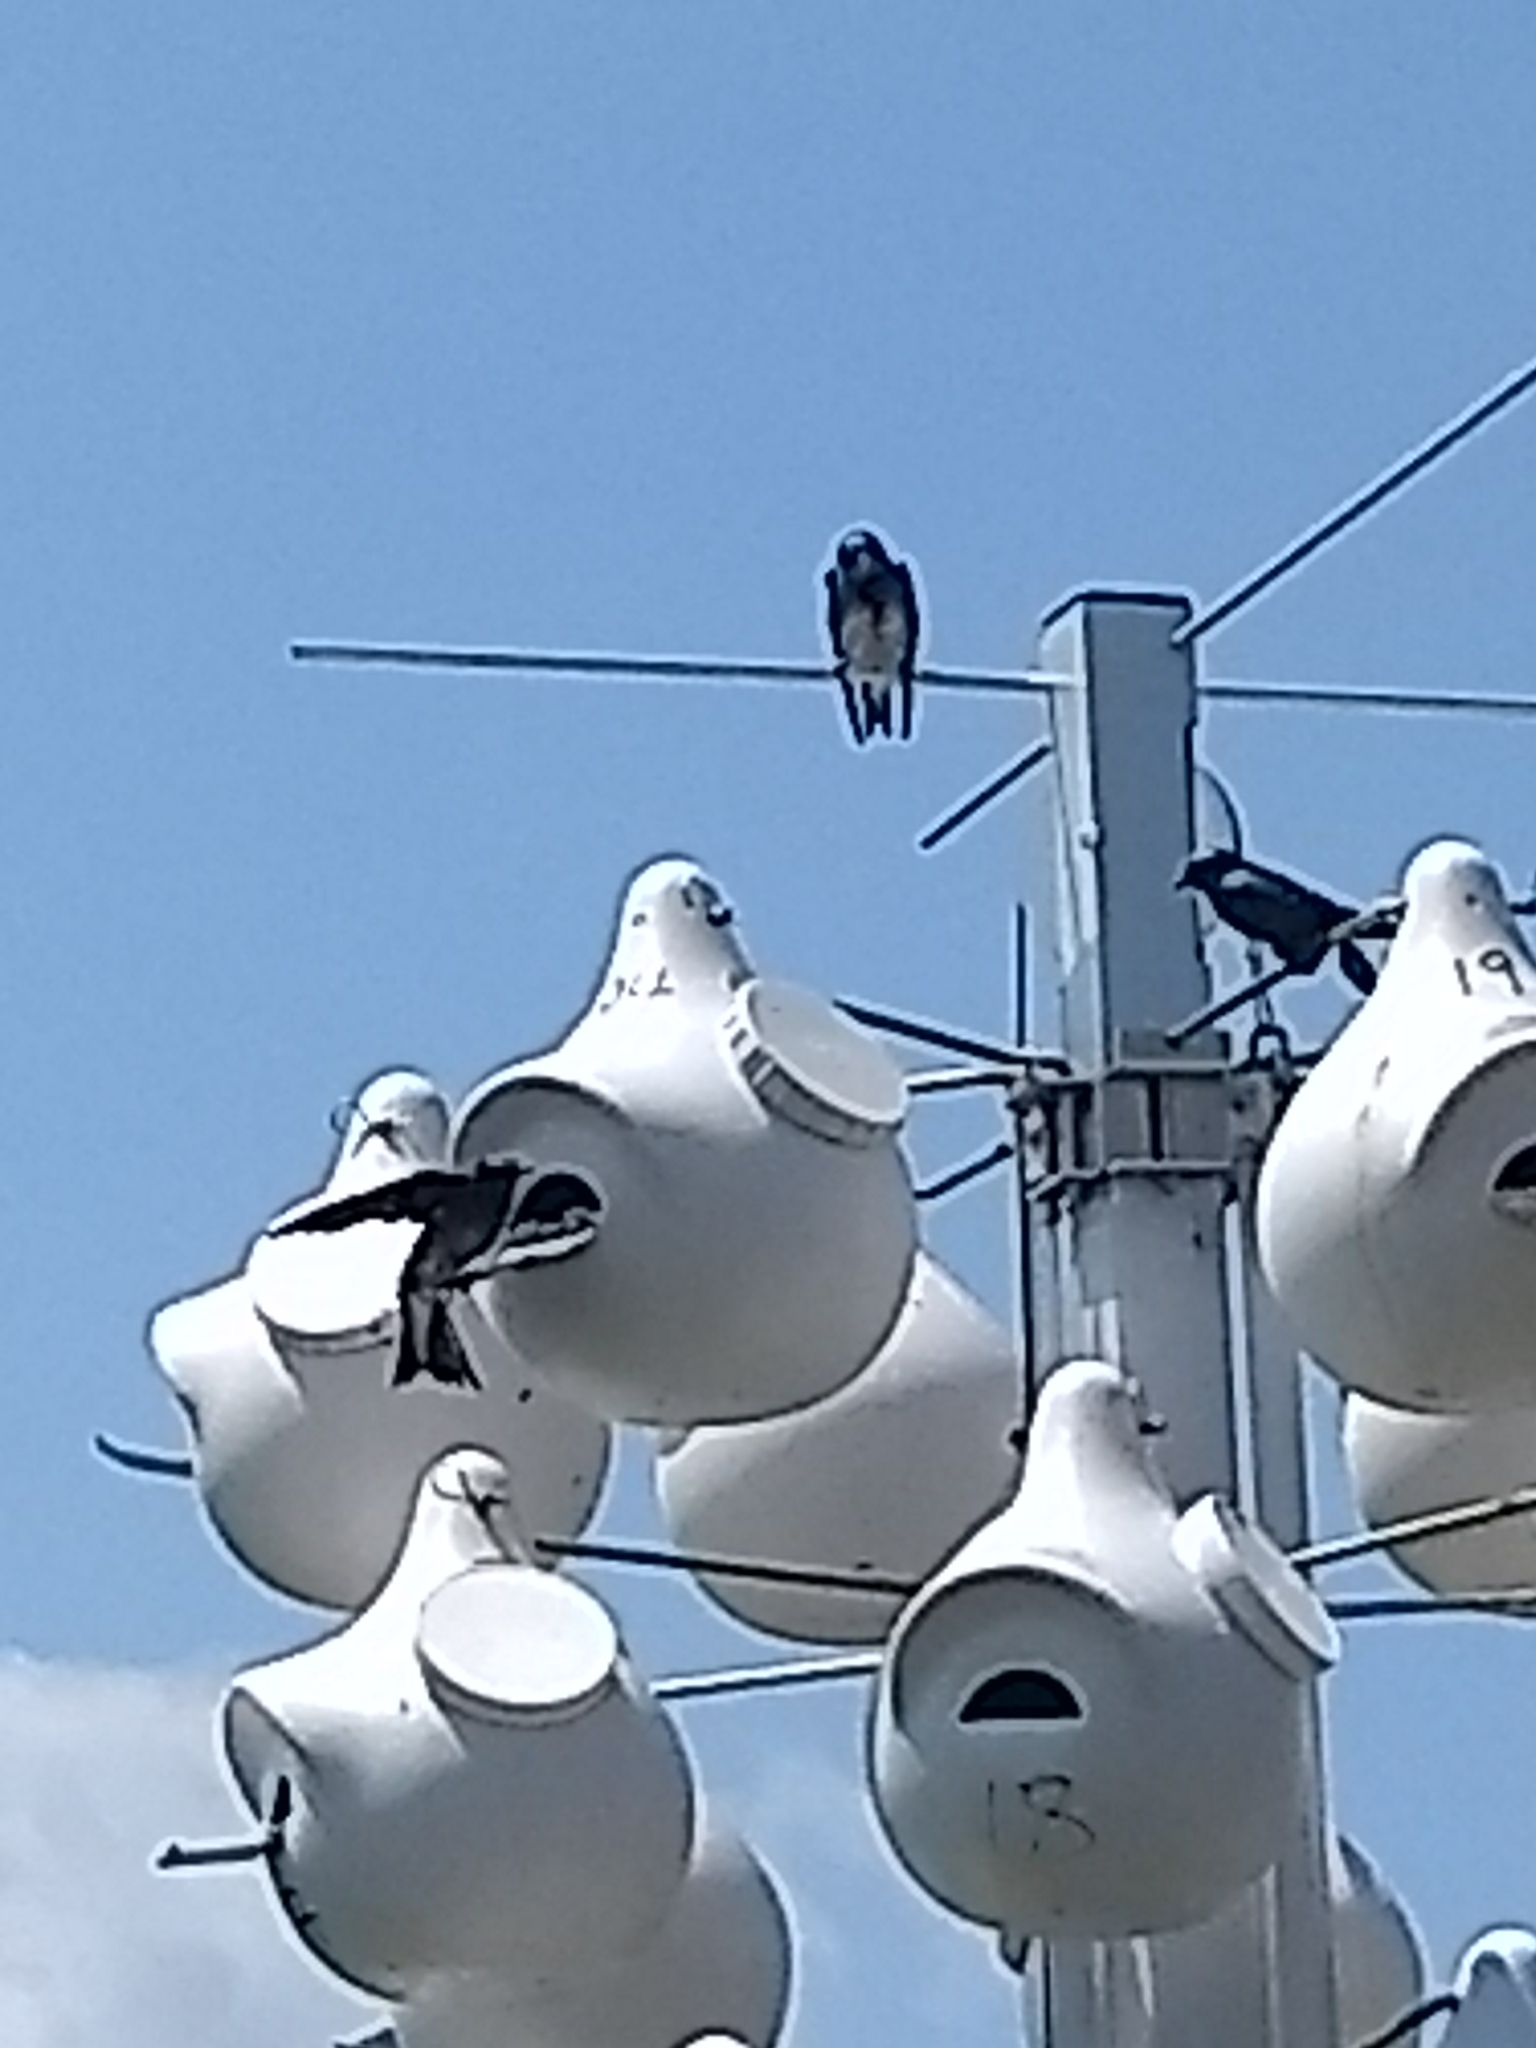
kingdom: Animalia
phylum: Chordata
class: Aves
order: Passeriformes
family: Hirundinidae
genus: Progne
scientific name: Progne subis
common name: Purple martin
